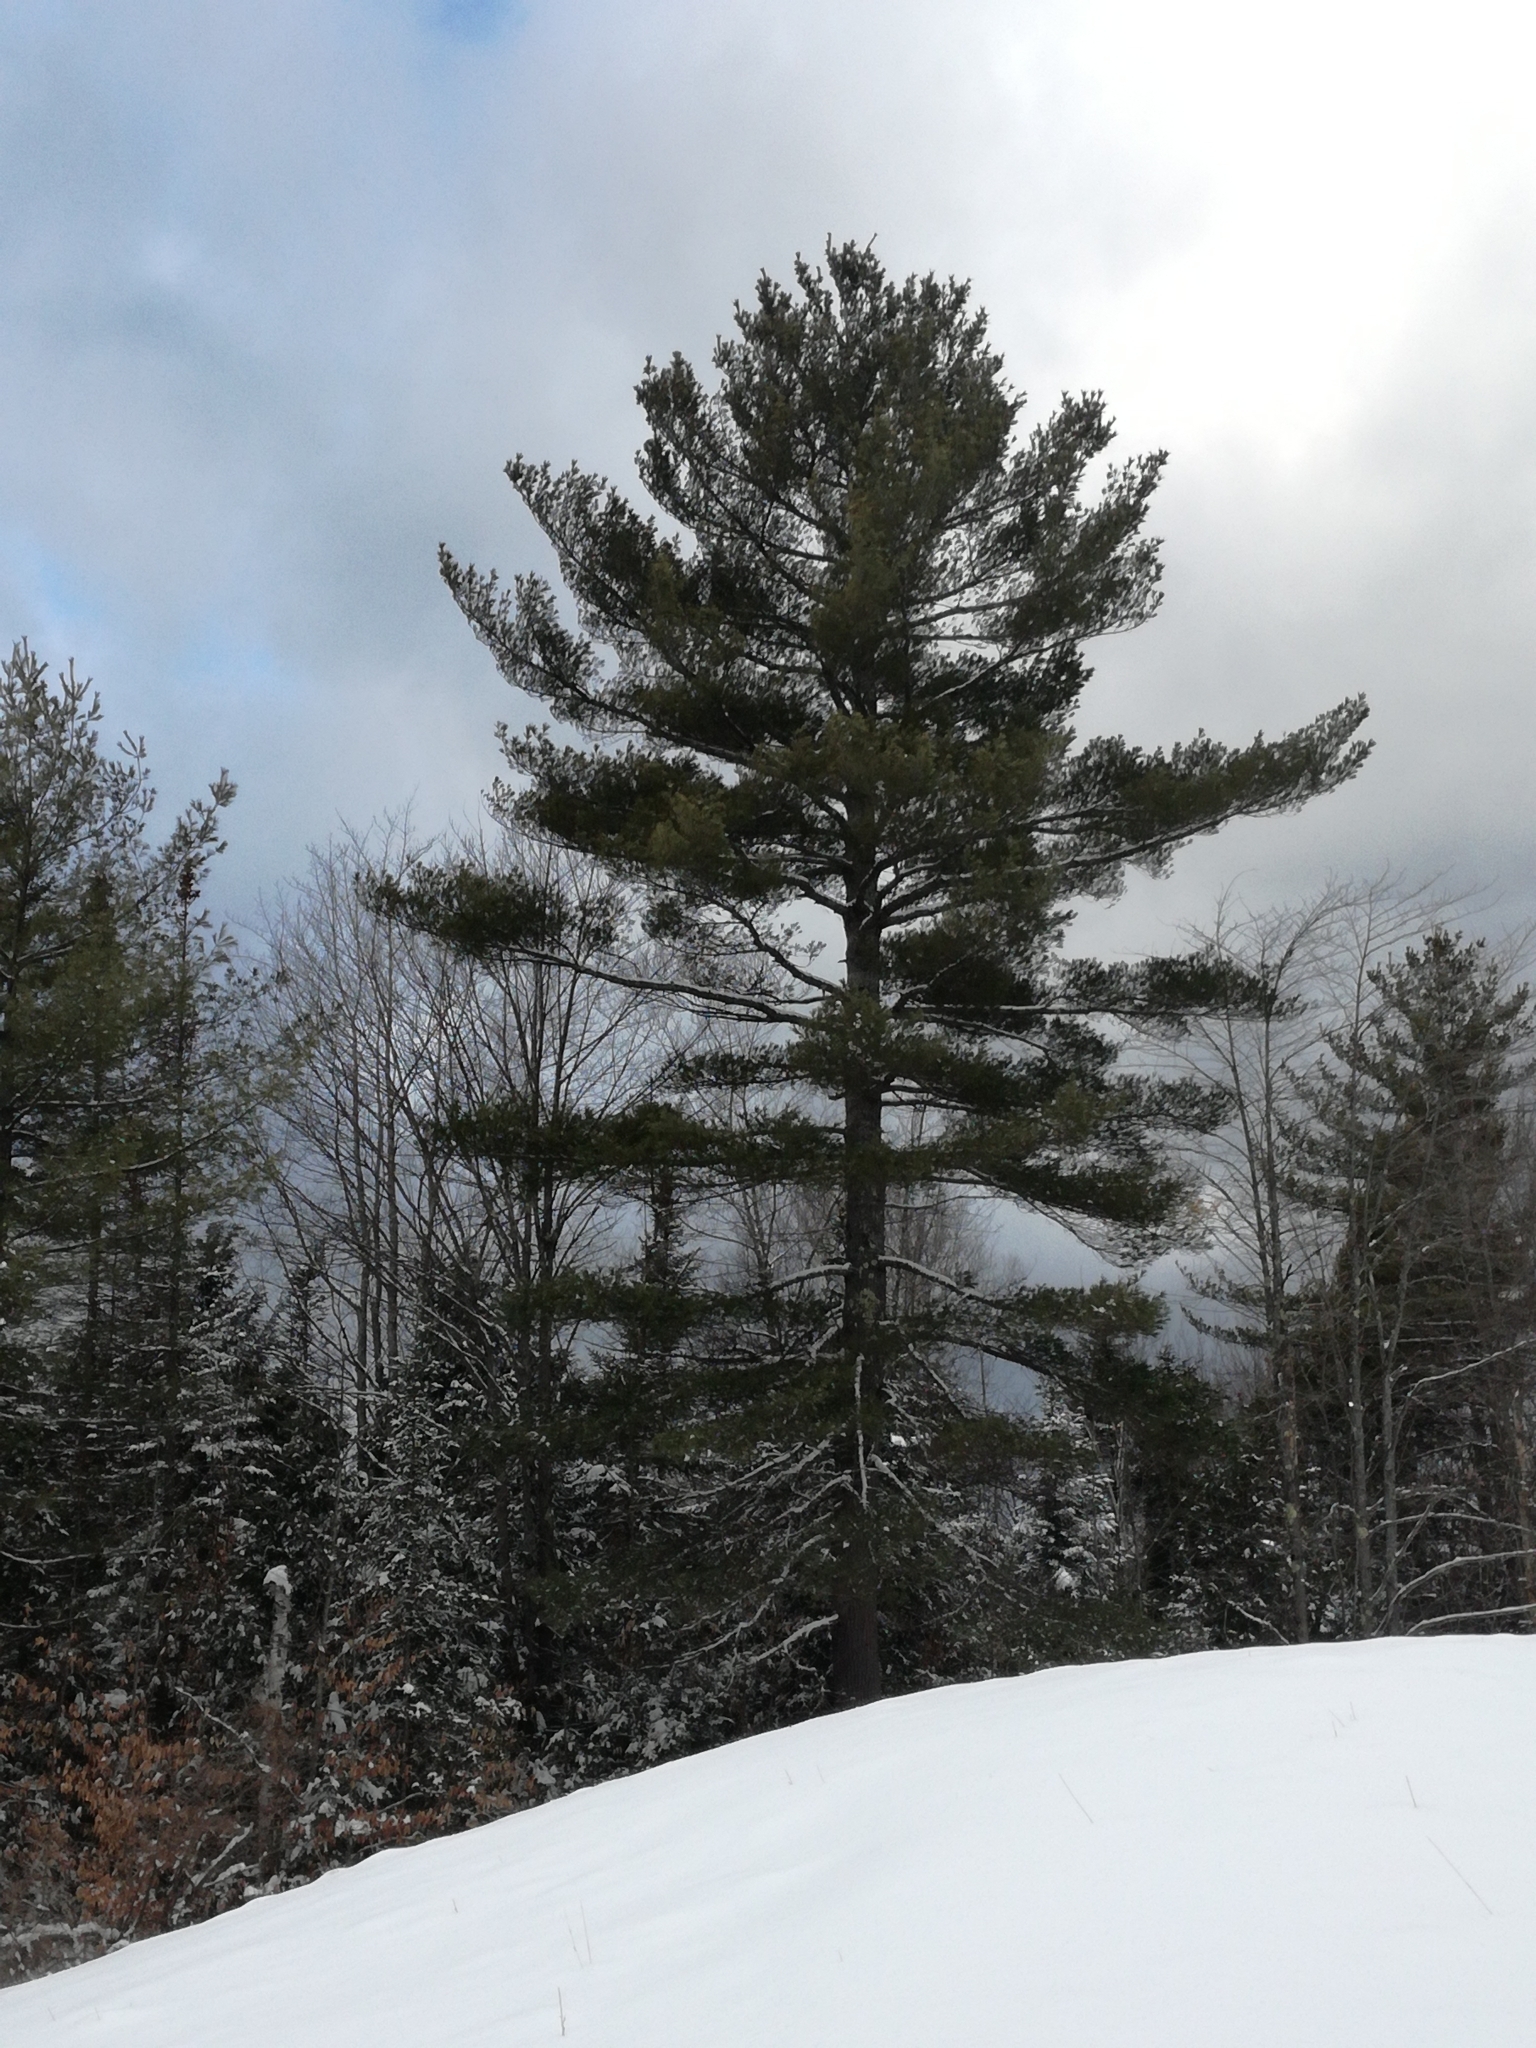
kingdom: Plantae
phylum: Tracheophyta
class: Pinopsida
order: Pinales
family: Pinaceae
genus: Pinus
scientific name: Pinus strobus
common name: Weymouth pine
